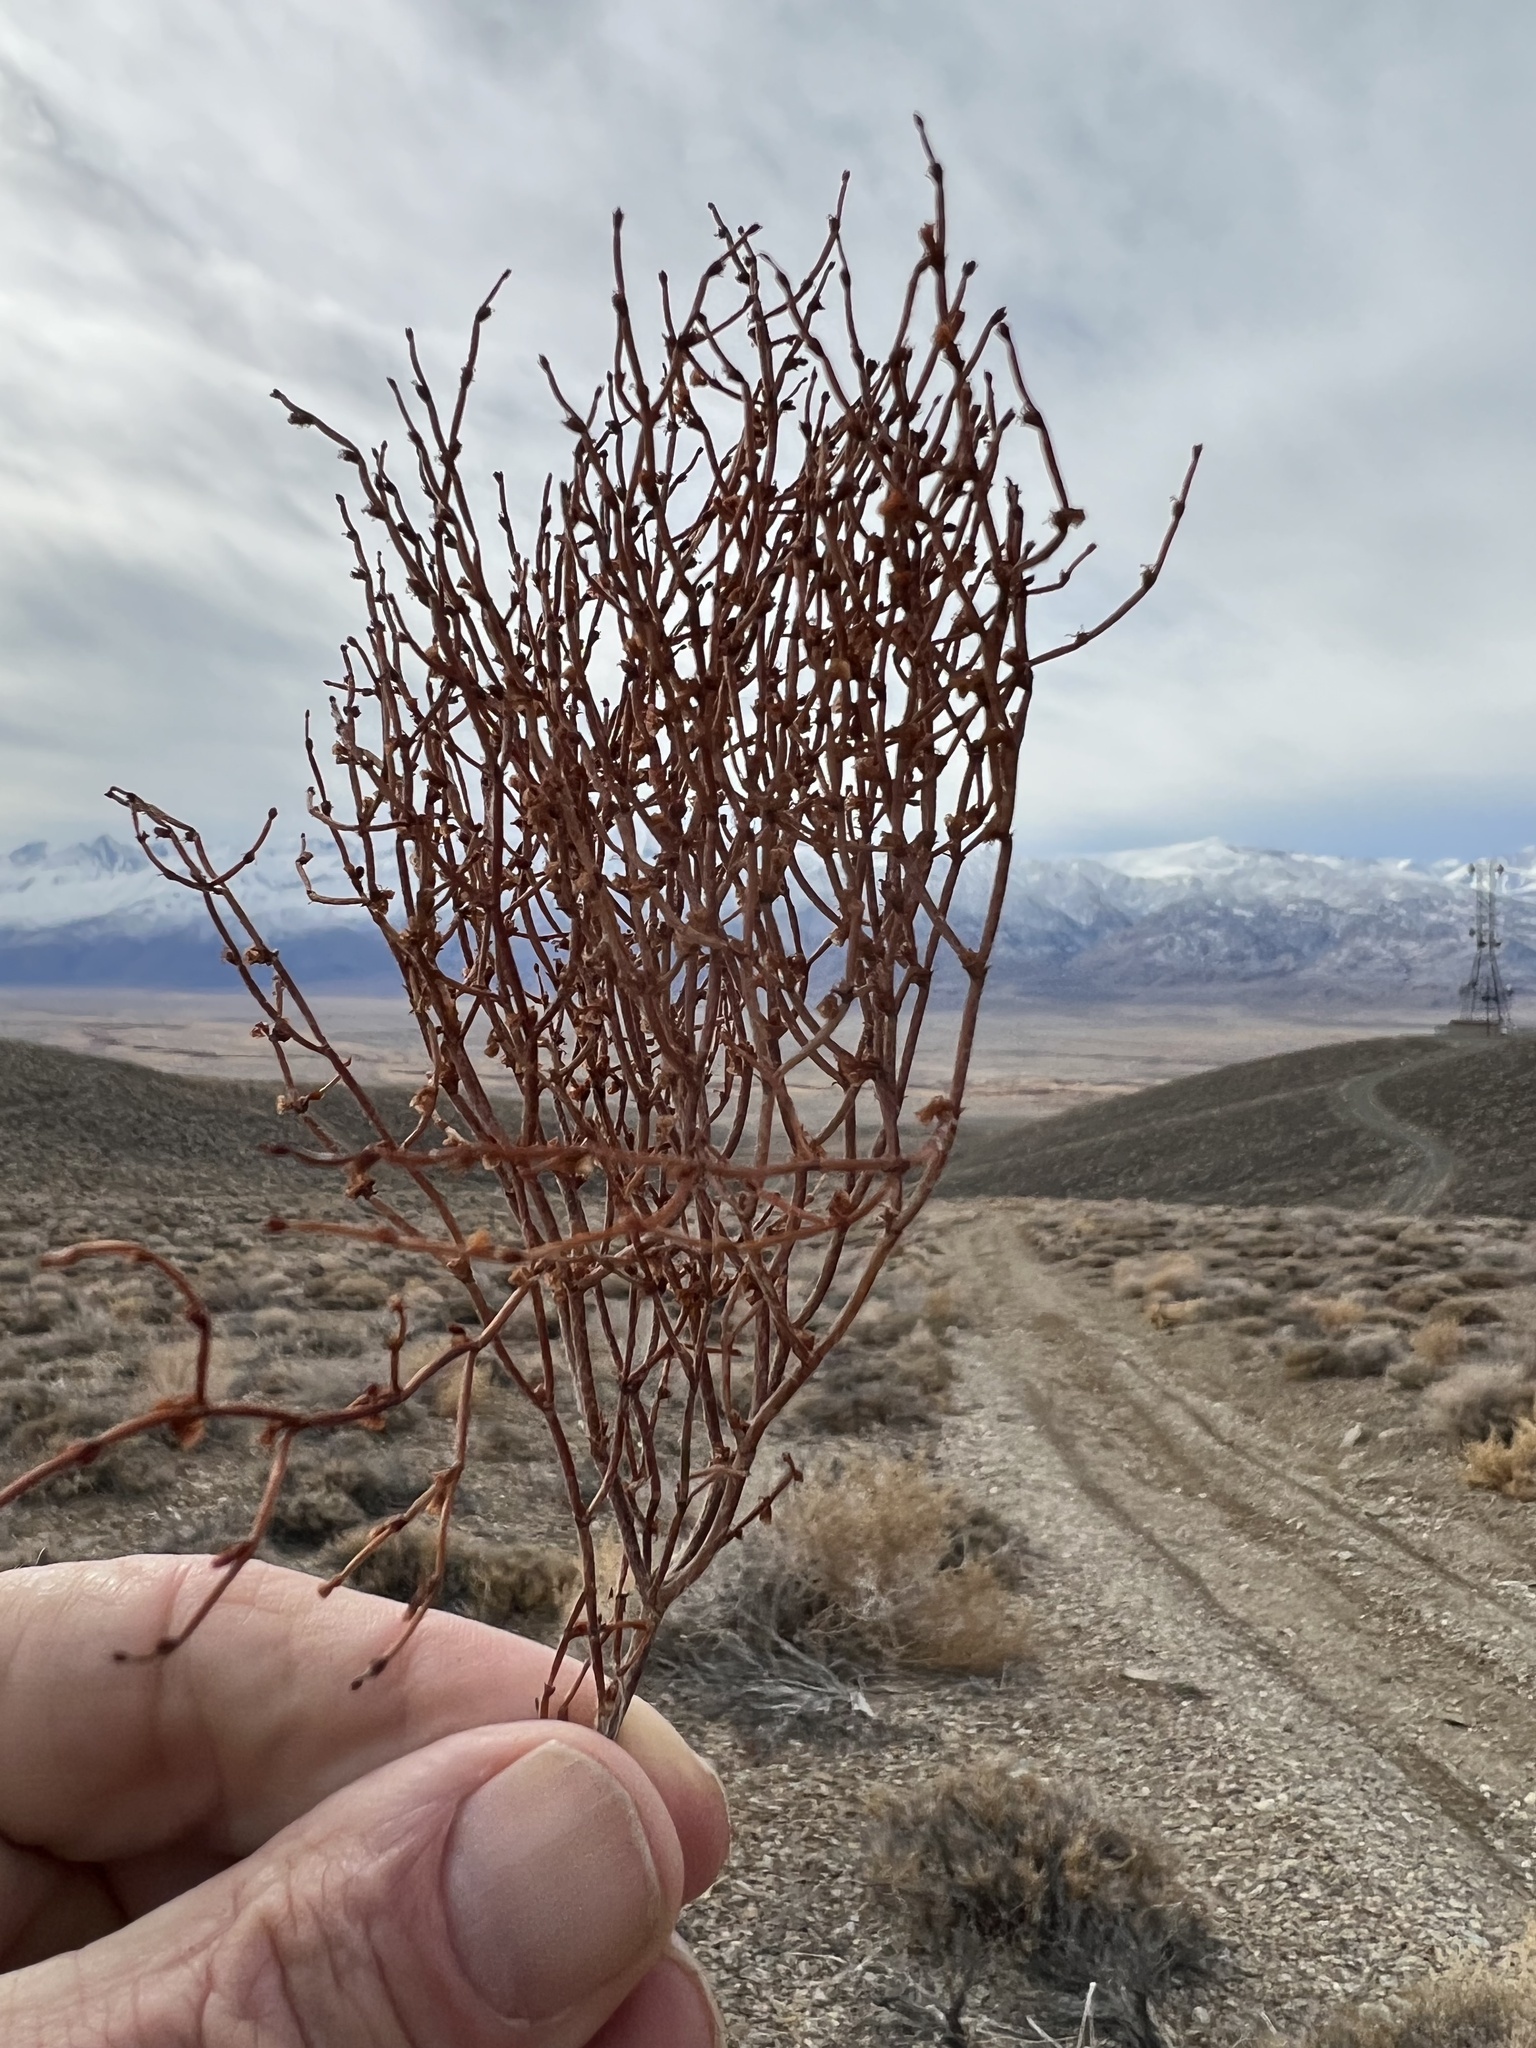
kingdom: Plantae
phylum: Tracheophyta
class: Magnoliopsida
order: Caryophyllales
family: Polygonaceae
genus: Eriogonum
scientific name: Eriogonum nidularium
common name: Bird's-nest wild buckwheat
